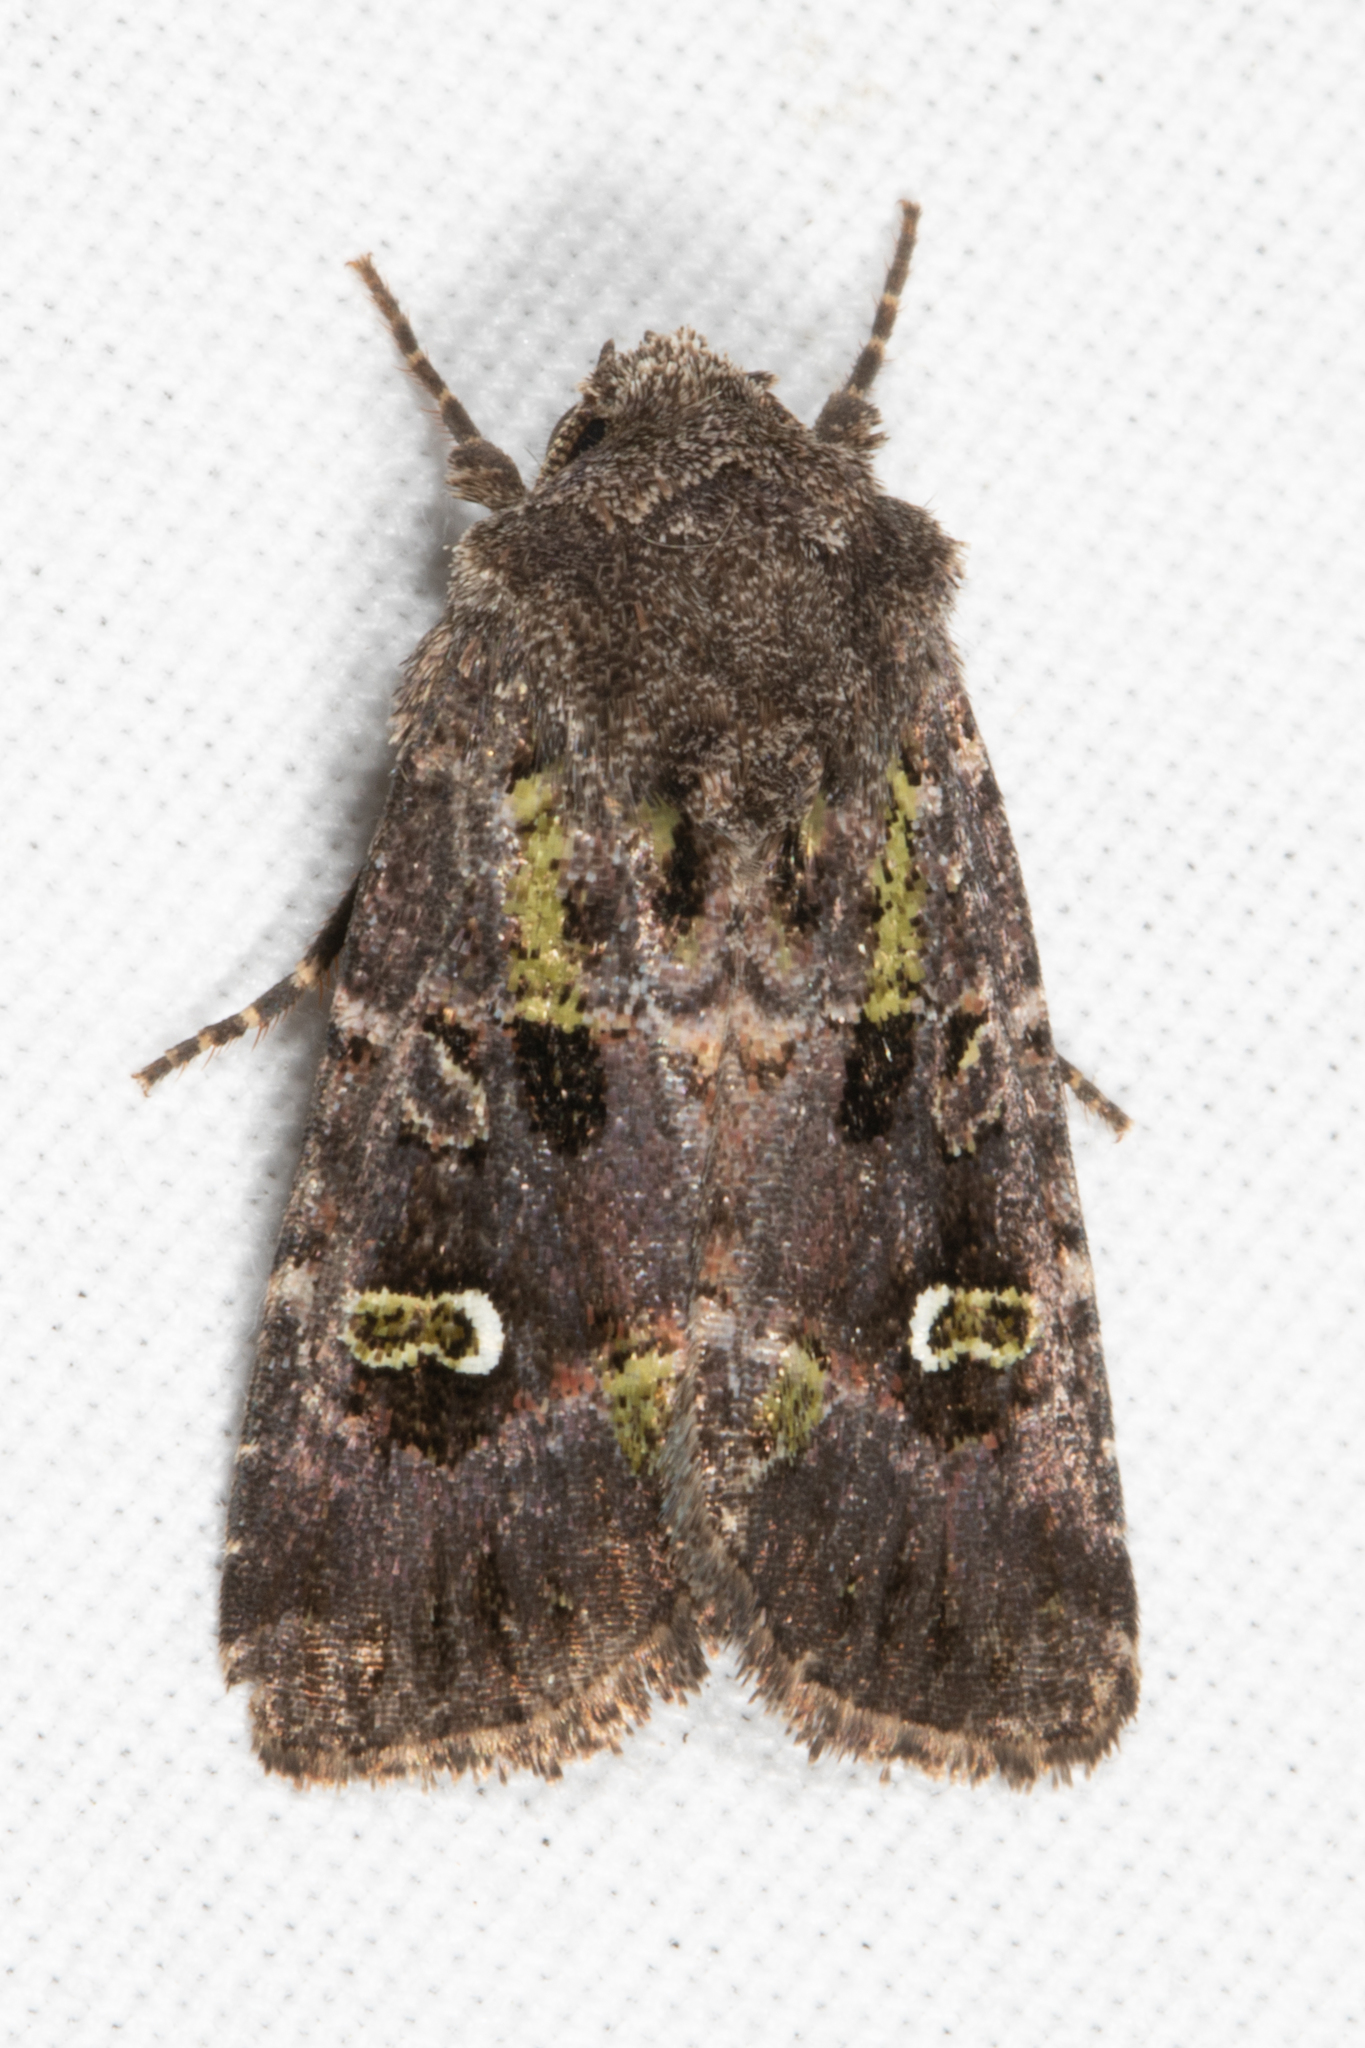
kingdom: Animalia
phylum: Arthropoda
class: Insecta
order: Lepidoptera
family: Noctuidae
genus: Lacinipolia
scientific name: Lacinipolia renigera
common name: Kidney-spotted minor
